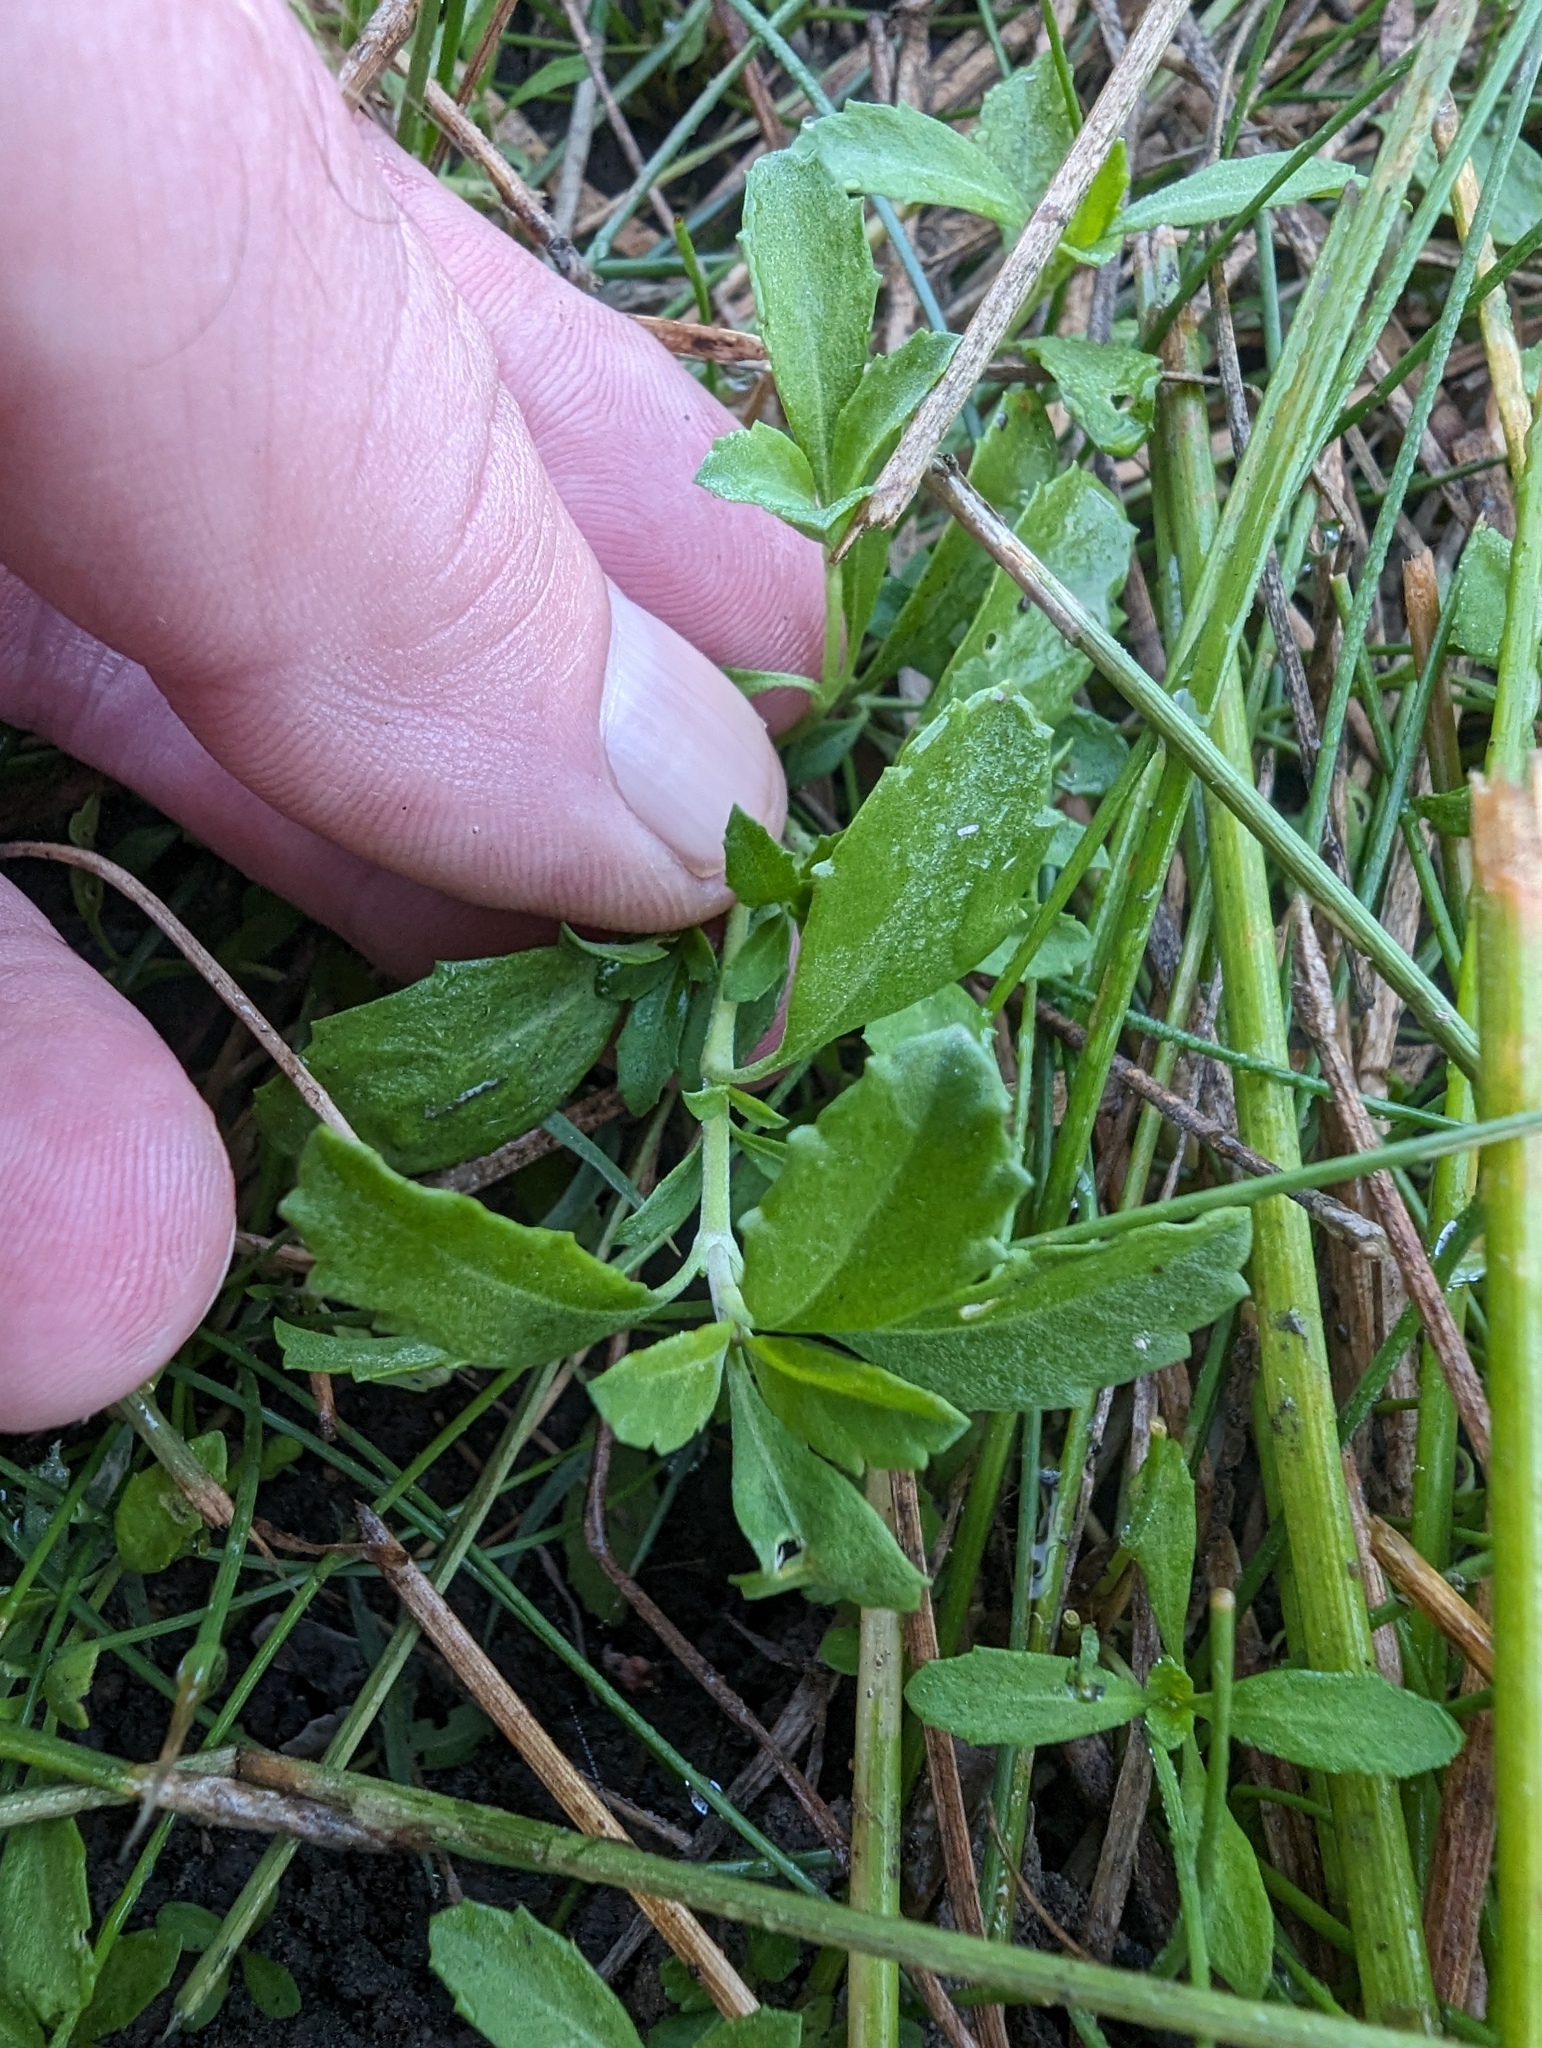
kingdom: Plantae
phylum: Tracheophyta
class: Magnoliopsida
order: Lamiales
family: Verbenaceae
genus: Phyla
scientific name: Phyla nodiflora
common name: Frogfruit
